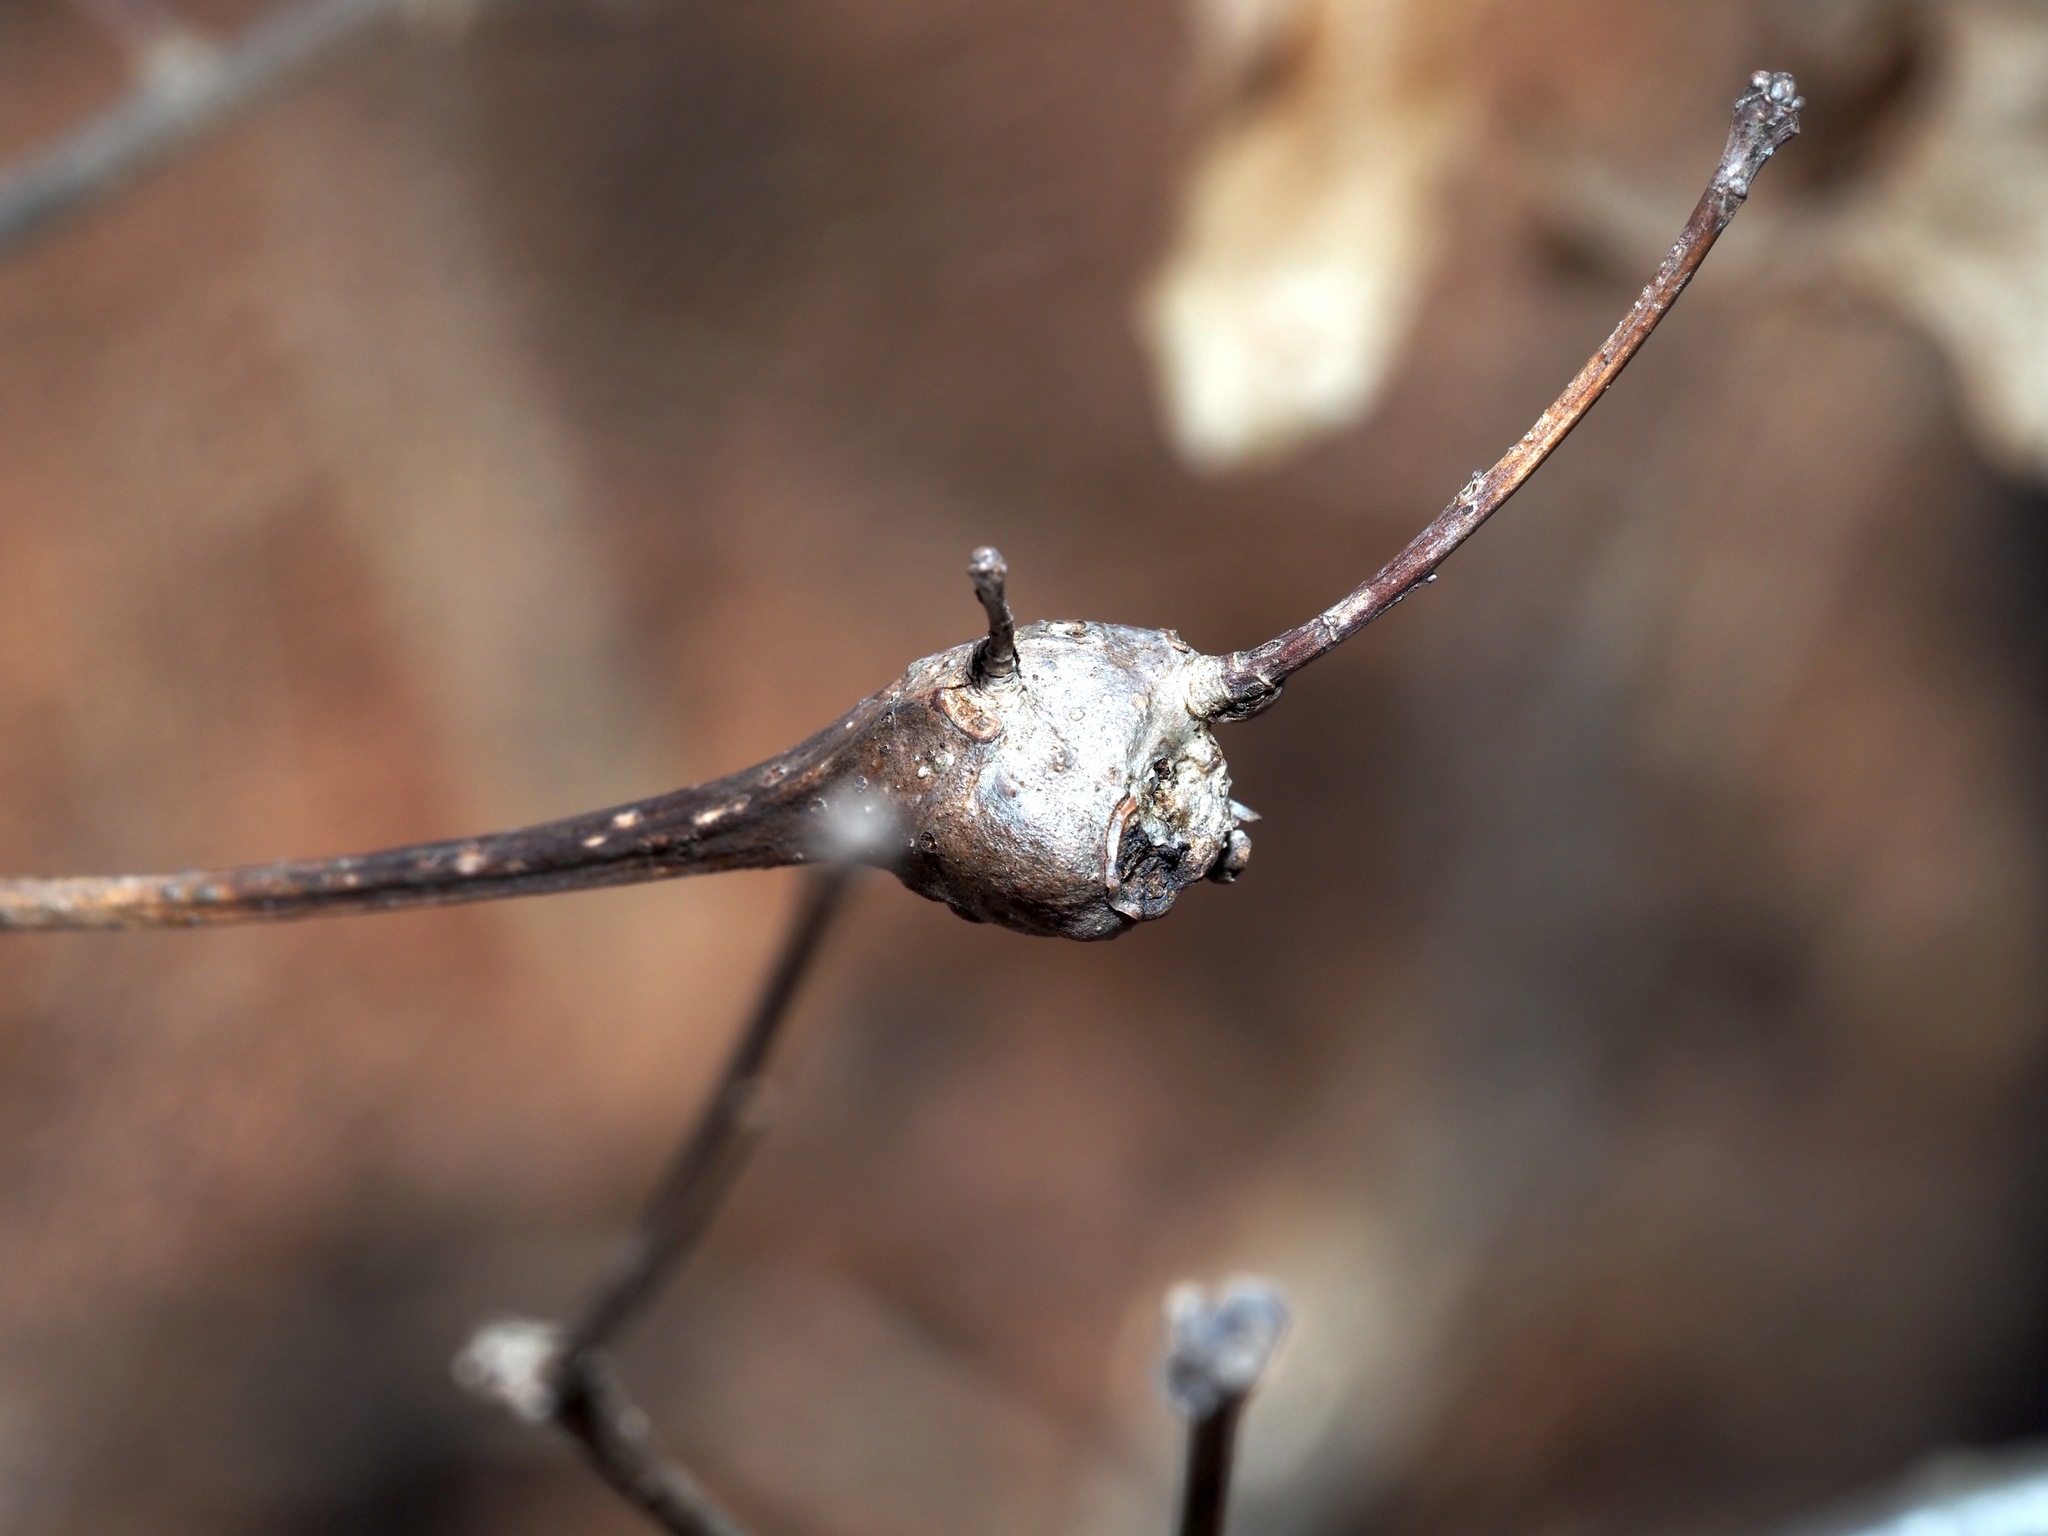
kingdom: Animalia
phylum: Arthropoda
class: Insecta
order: Hymenoptera
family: Cynipidae
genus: Callirhytis
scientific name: Callirhytis clavula
